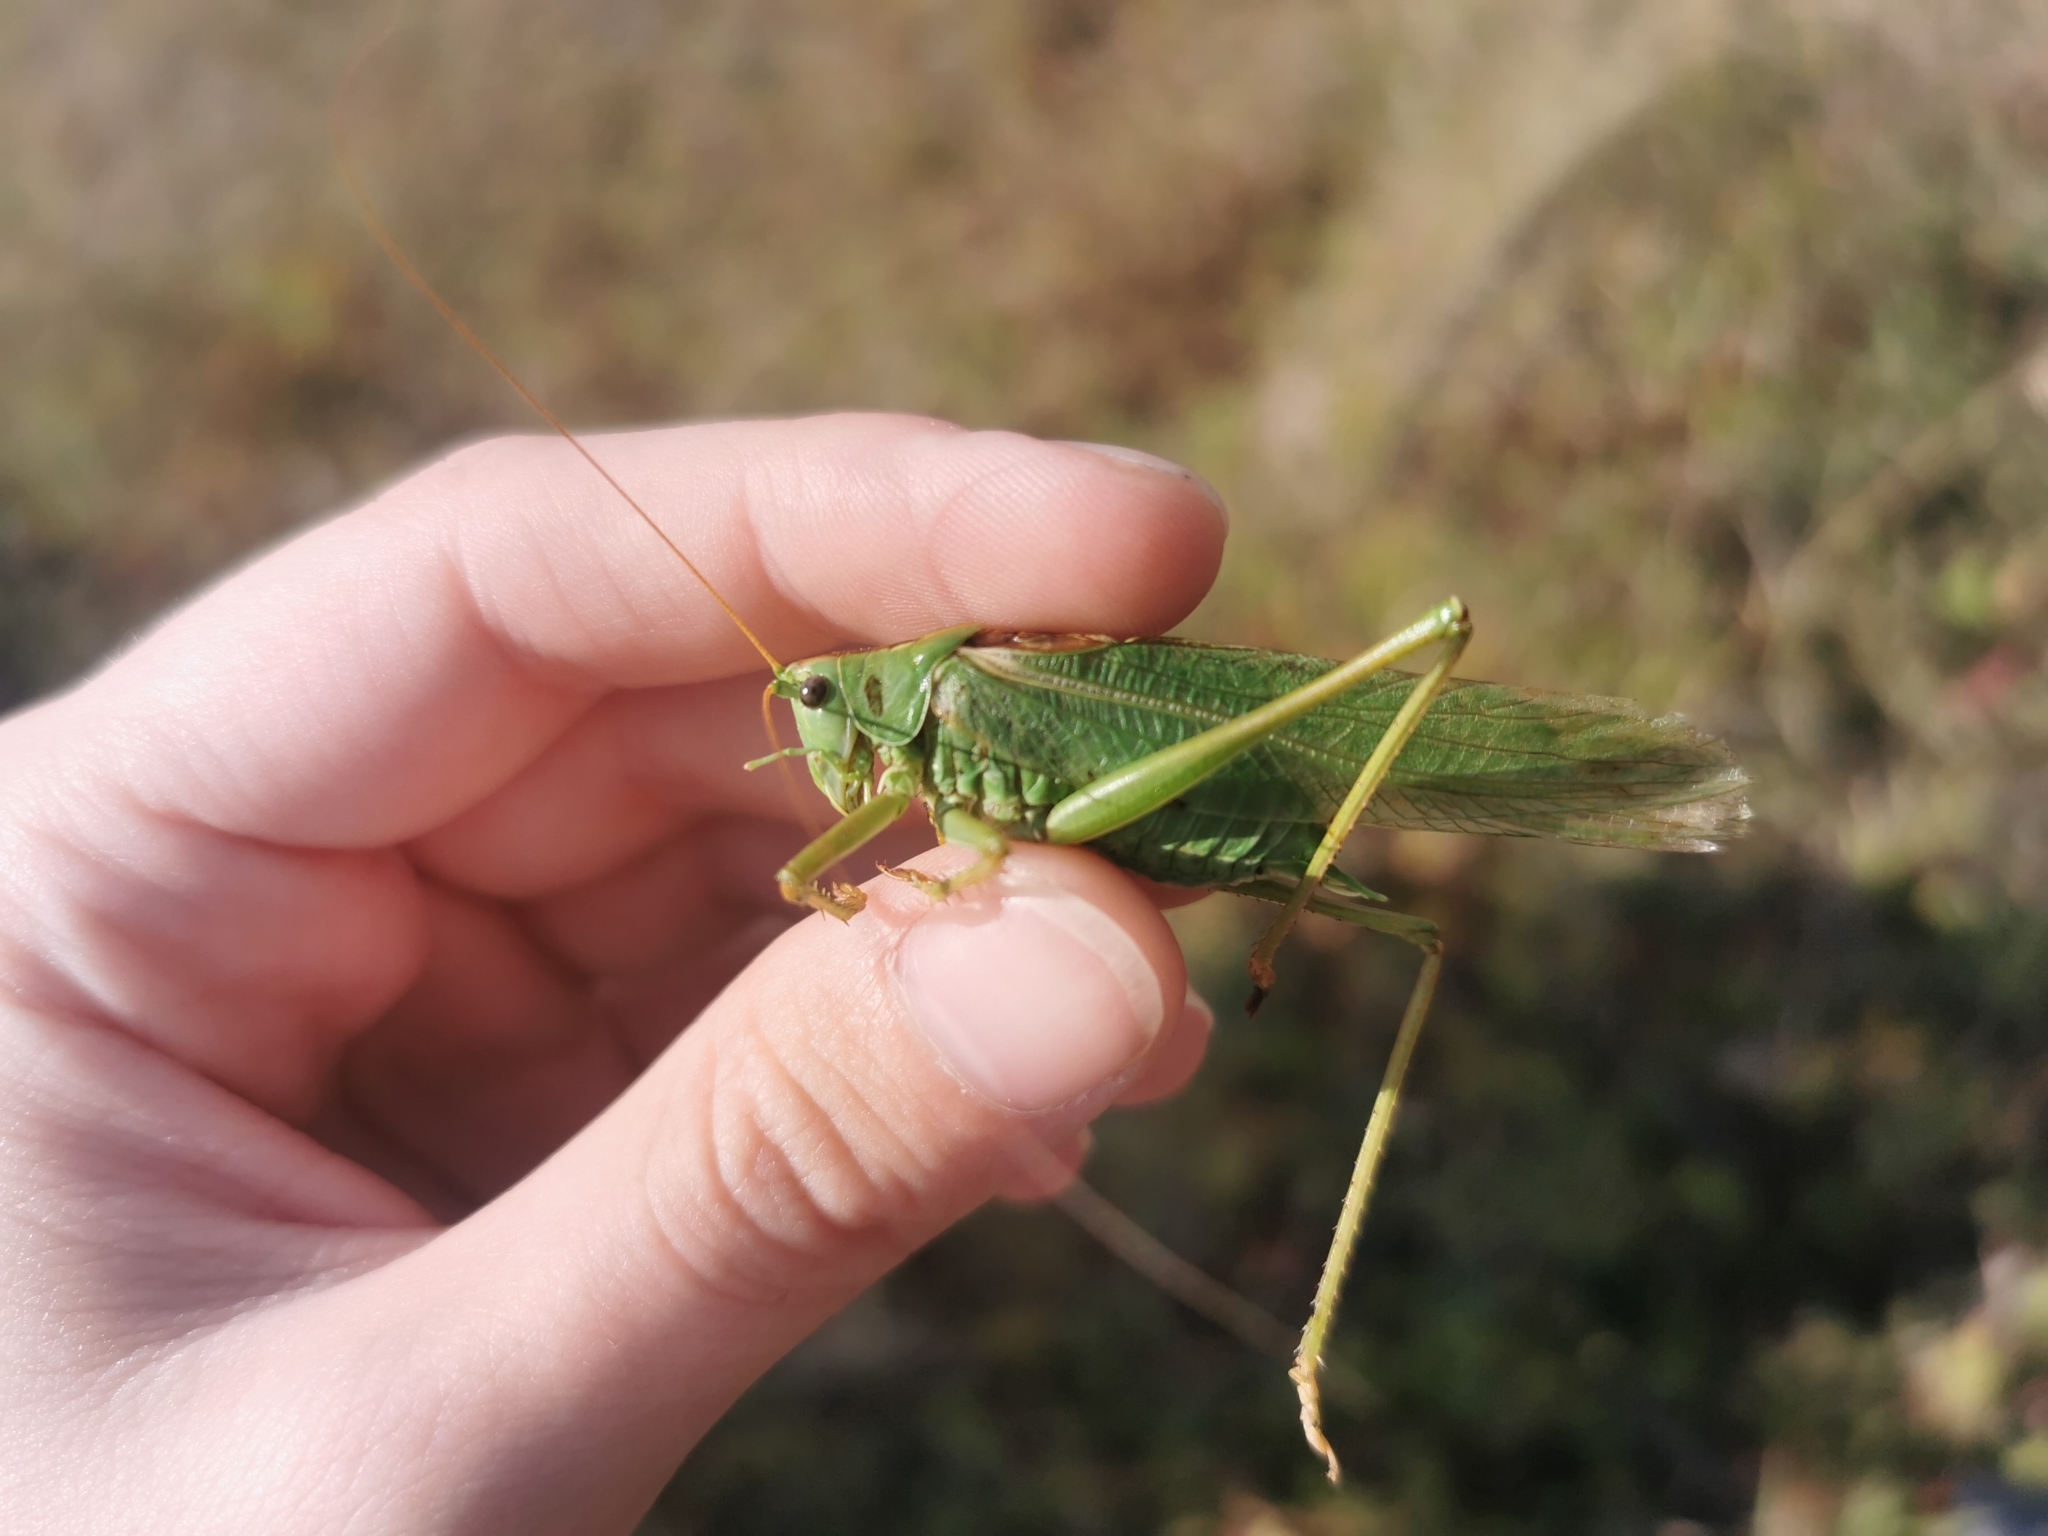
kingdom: Animalia
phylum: Arthropoda
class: Insecta
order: Orthoptera
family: Tettigoniidae
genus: Tettigonia
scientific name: Tettigonia viridissima
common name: Great green bush-cricket
